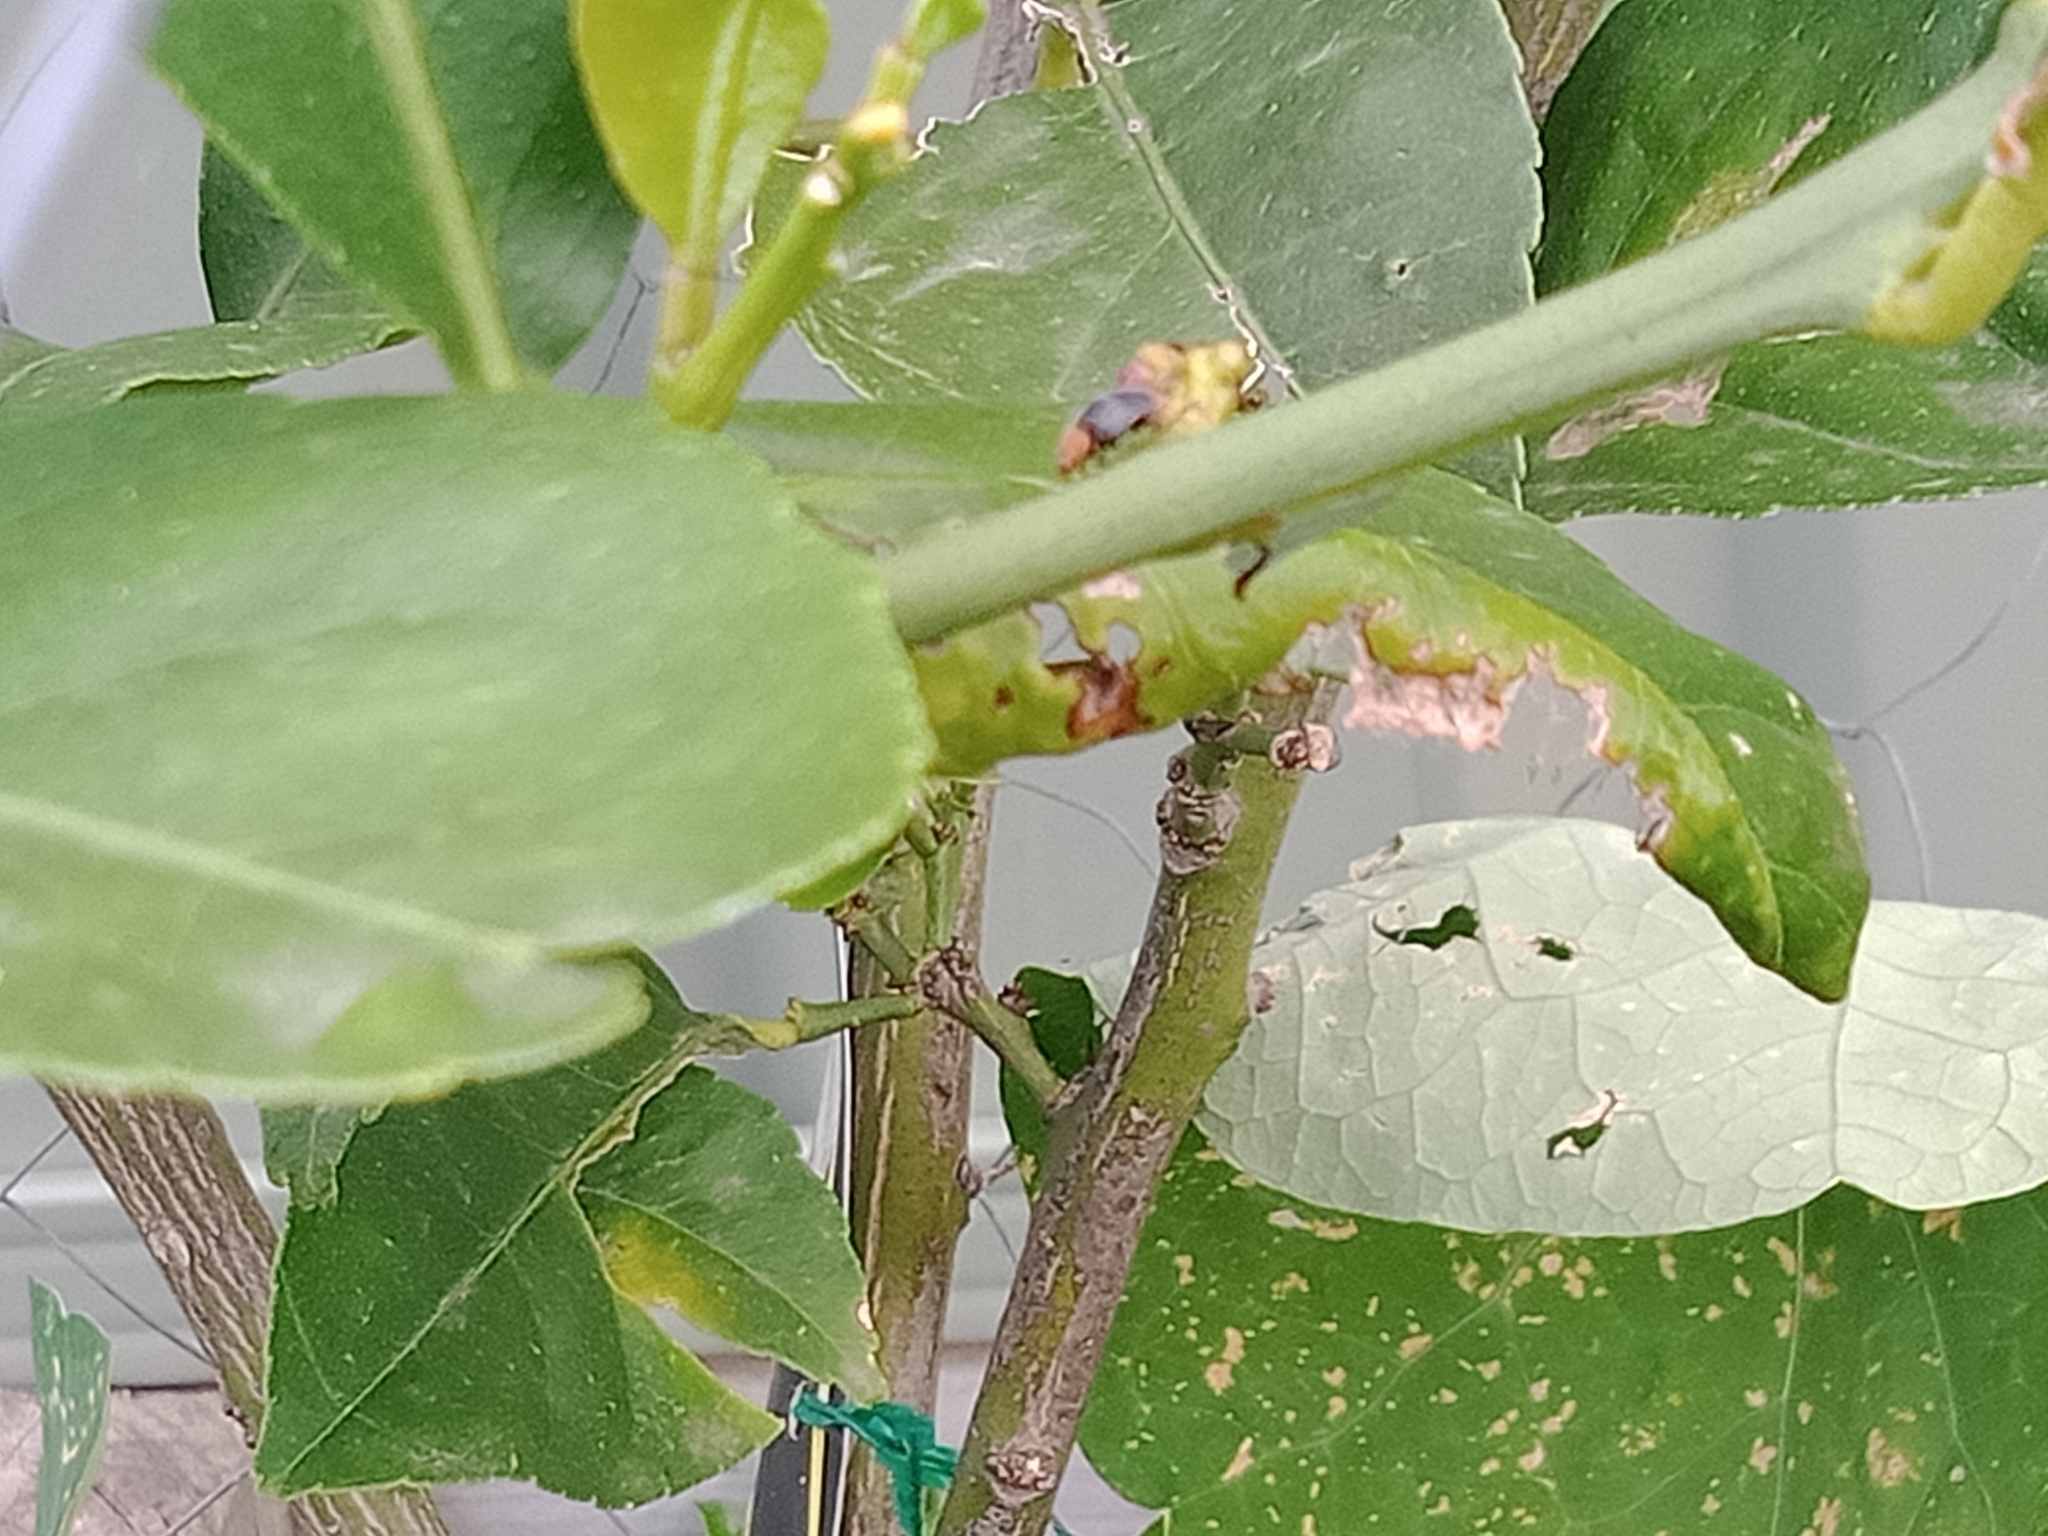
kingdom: Animalia
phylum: Arthropoda
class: Insecta
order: Coleoptera
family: Coccinellidae
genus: Cryptolaemus
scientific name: Cryptolaemus montrouzieri
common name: Mealybug destroyer
